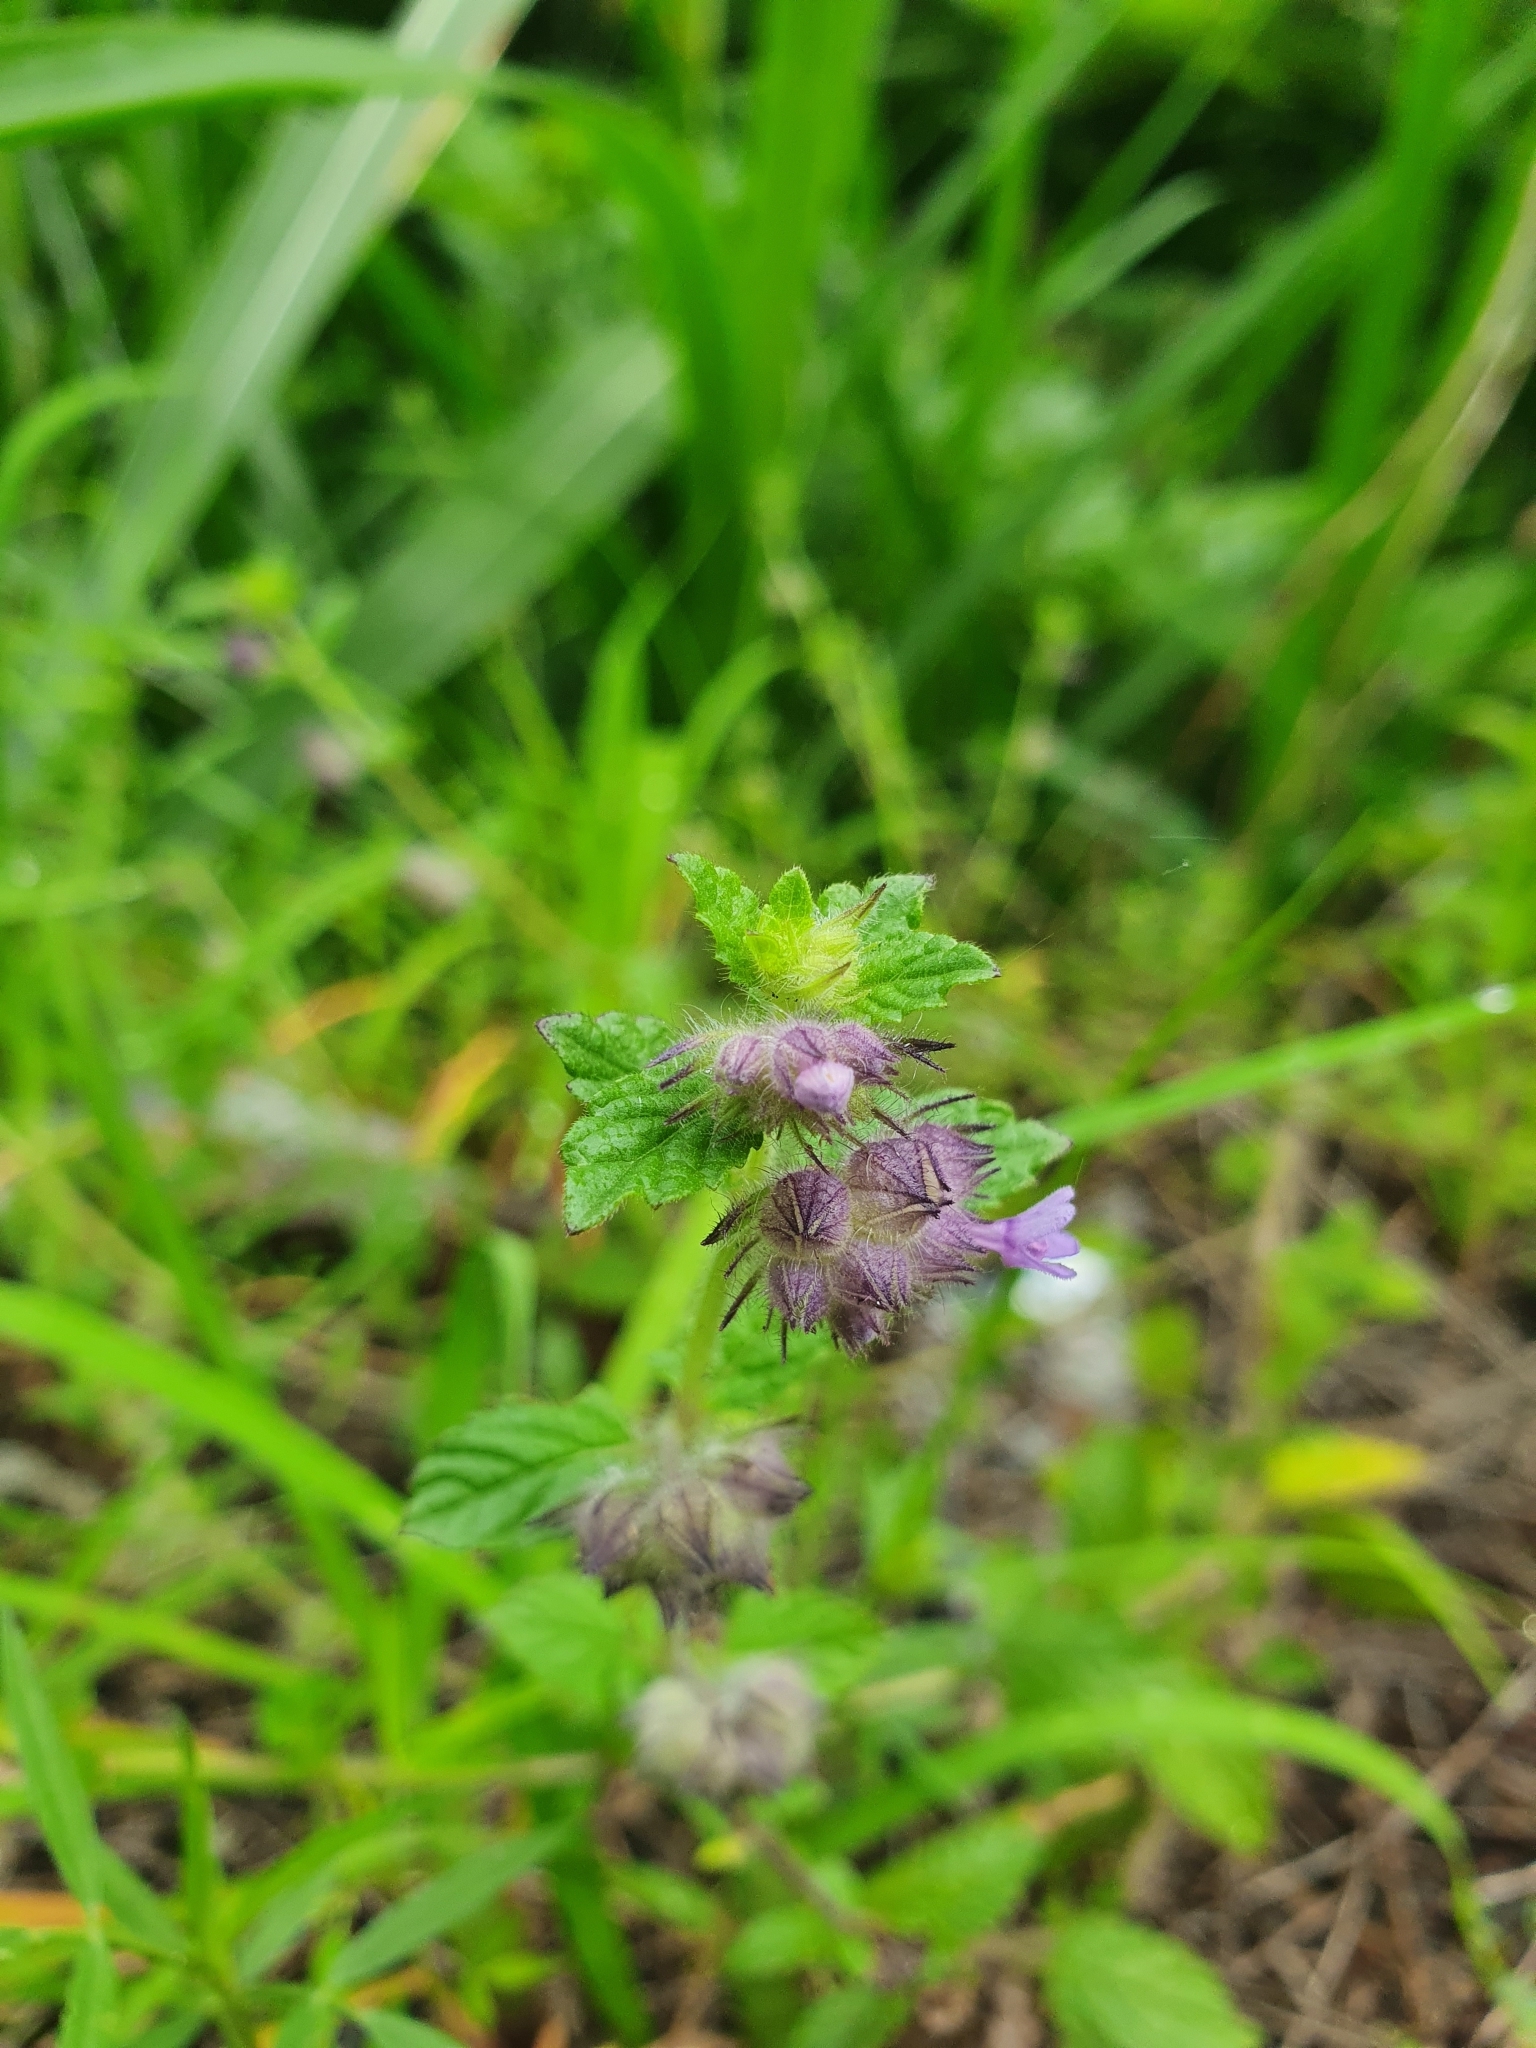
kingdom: Plantae
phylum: Tracheophyta
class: Magnoliopsida
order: Lamiales
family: Lamiaceae
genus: Marsypianthes
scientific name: Marsypianthes chamaedrys
